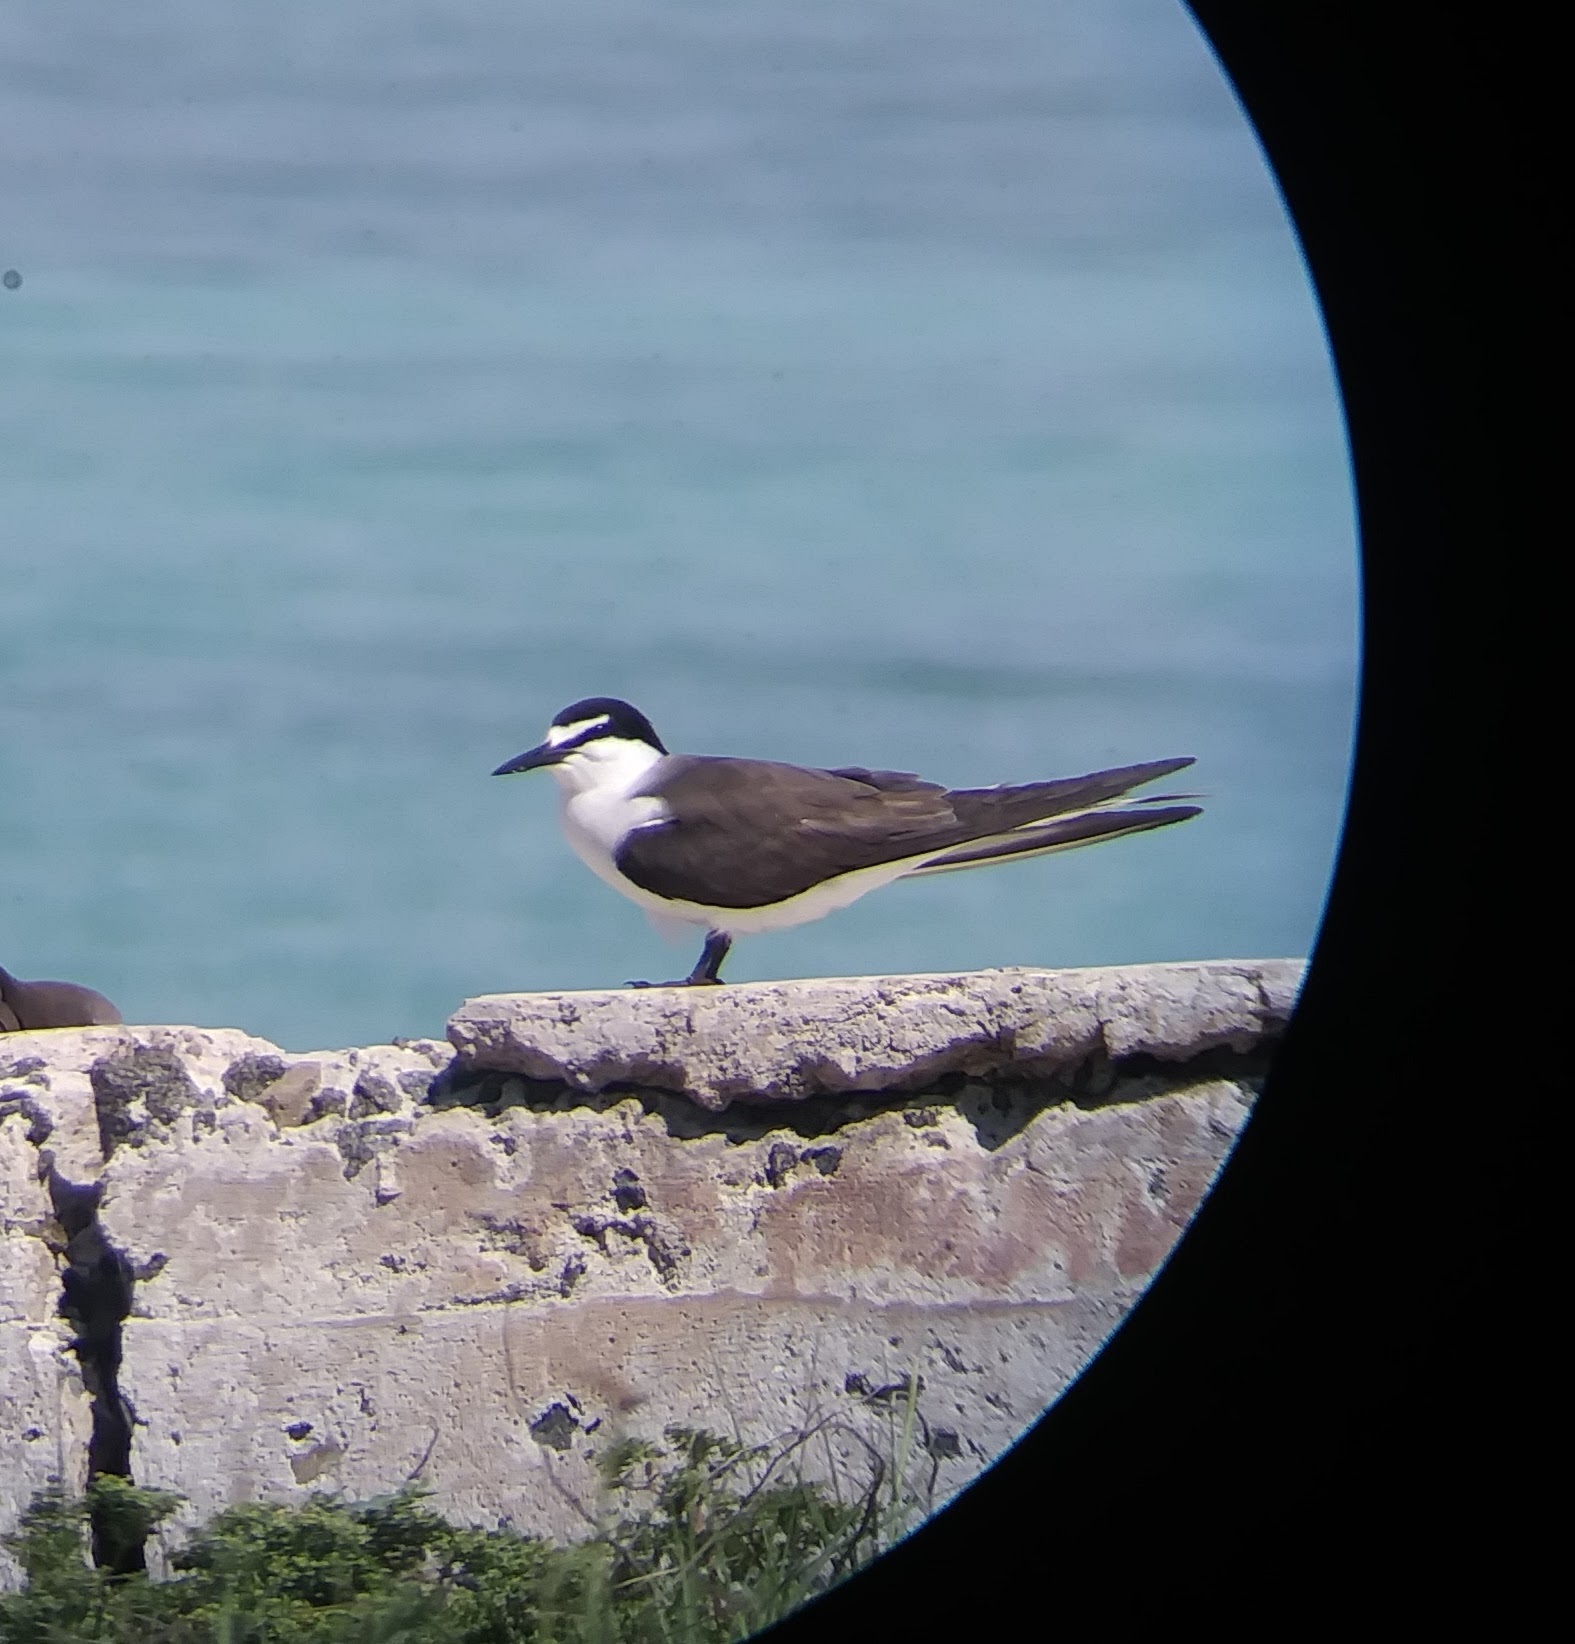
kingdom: Animalia
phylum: Chordata
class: Aves
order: Charadriiformes
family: Laridae
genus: Onychoprion
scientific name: Onychoprion anaethetus
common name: Bridled tern
